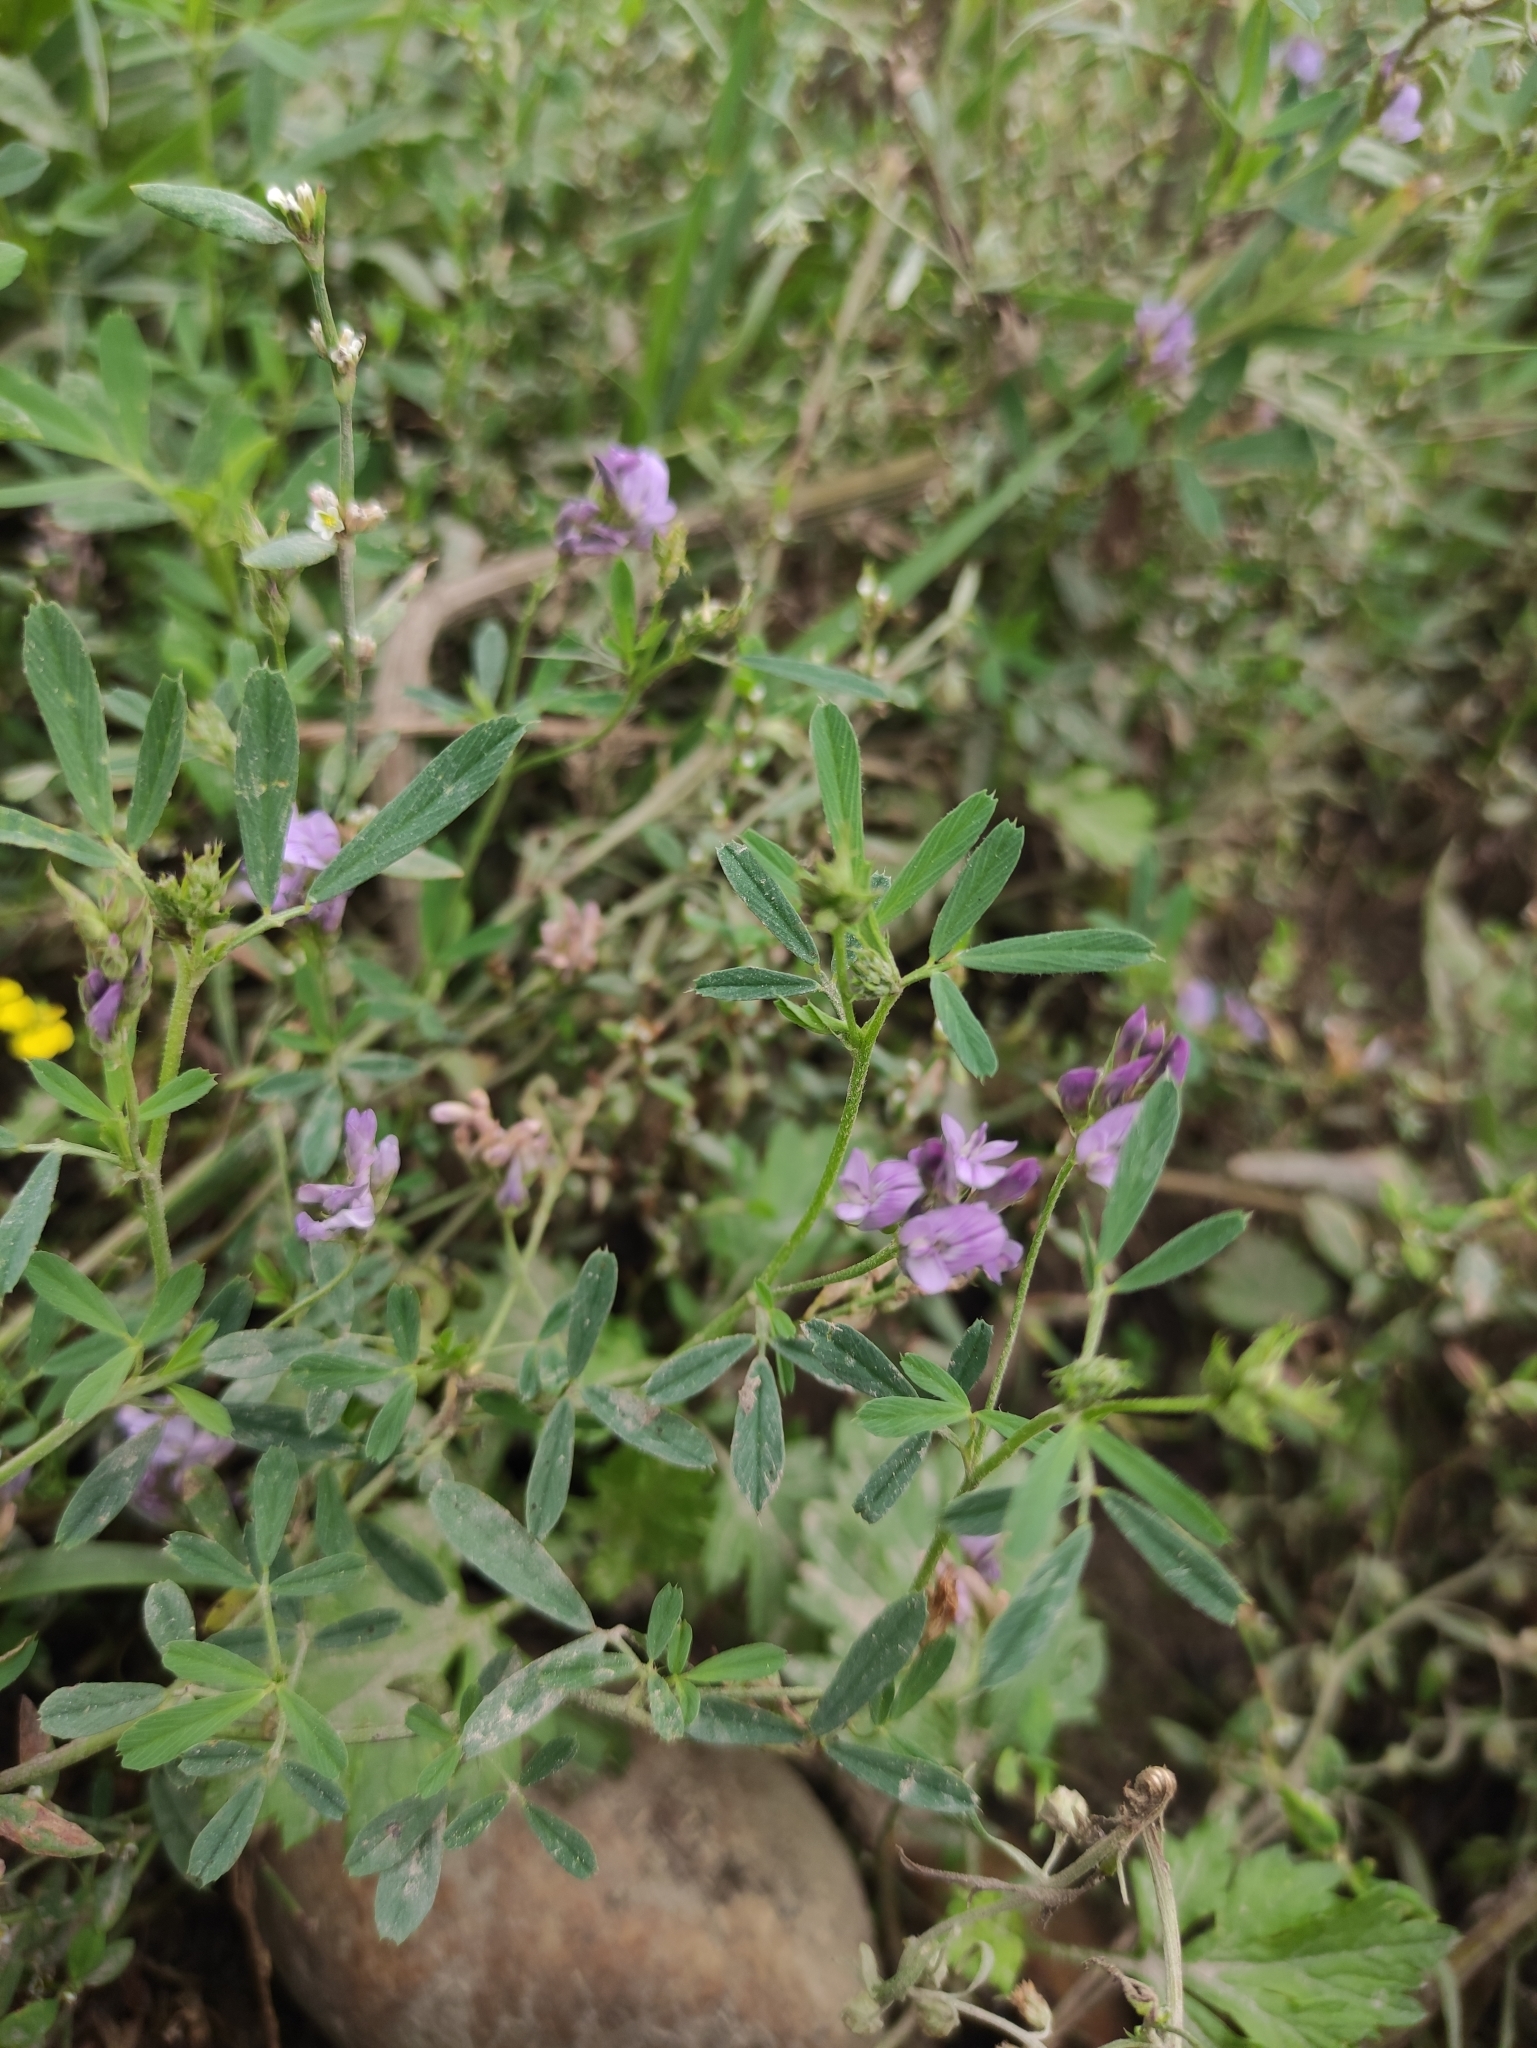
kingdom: Plantae
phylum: Tracheophyta
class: Magnoliopsida
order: Fabales
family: Fabaceae
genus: Medicago
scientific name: Medicago varia
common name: Sand lucerne
